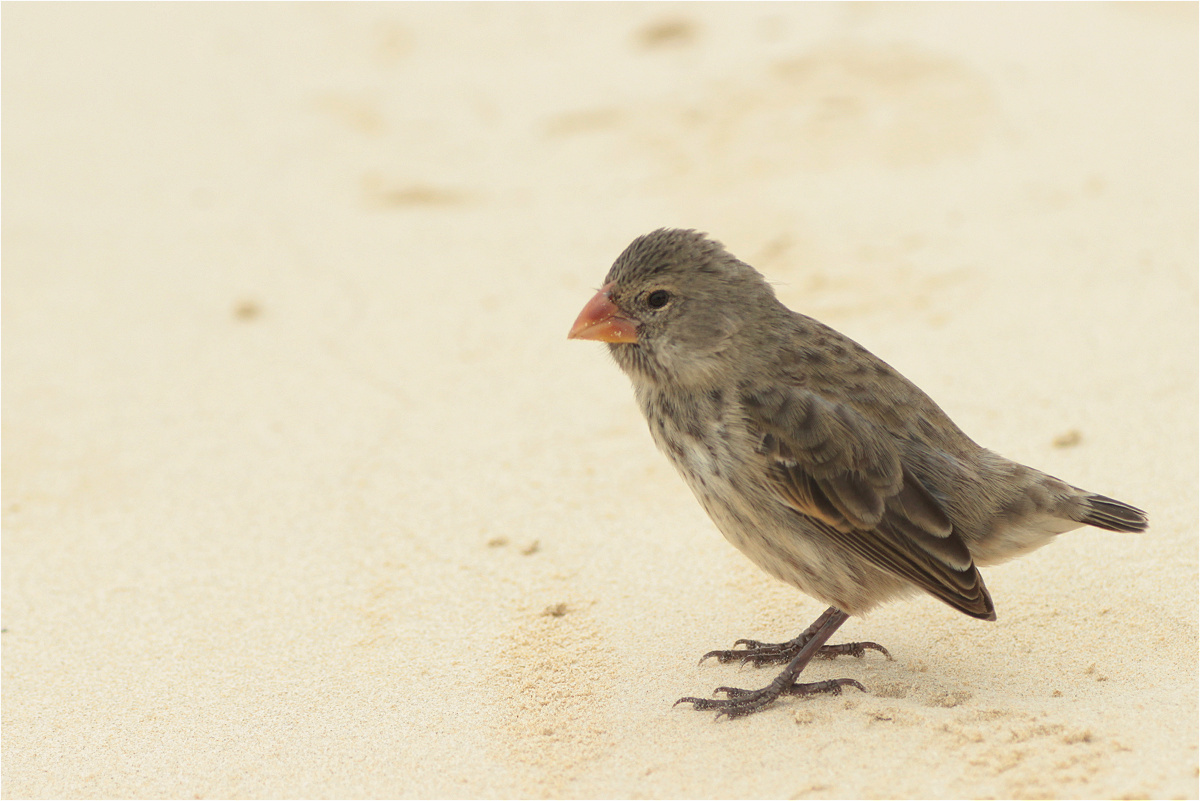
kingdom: Animalia
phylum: Chordata
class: Aves
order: Passeriformes
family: Thraupidae
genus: Geospiza
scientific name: Geospiza fuliginosa
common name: Small ground finch
